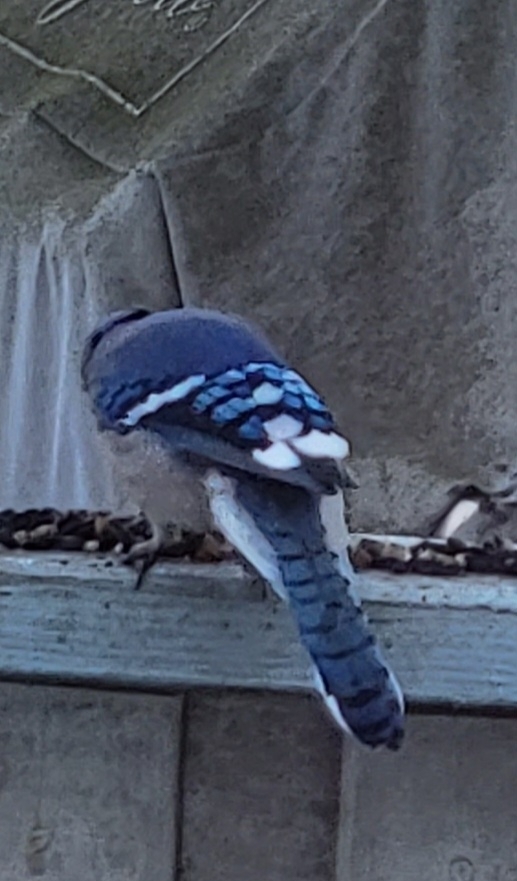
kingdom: Animalia
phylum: Chordata
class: Aves
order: Passeriformes
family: Corvidae
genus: Cyanocitta
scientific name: Cyanocitta cristata
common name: Blue jay
